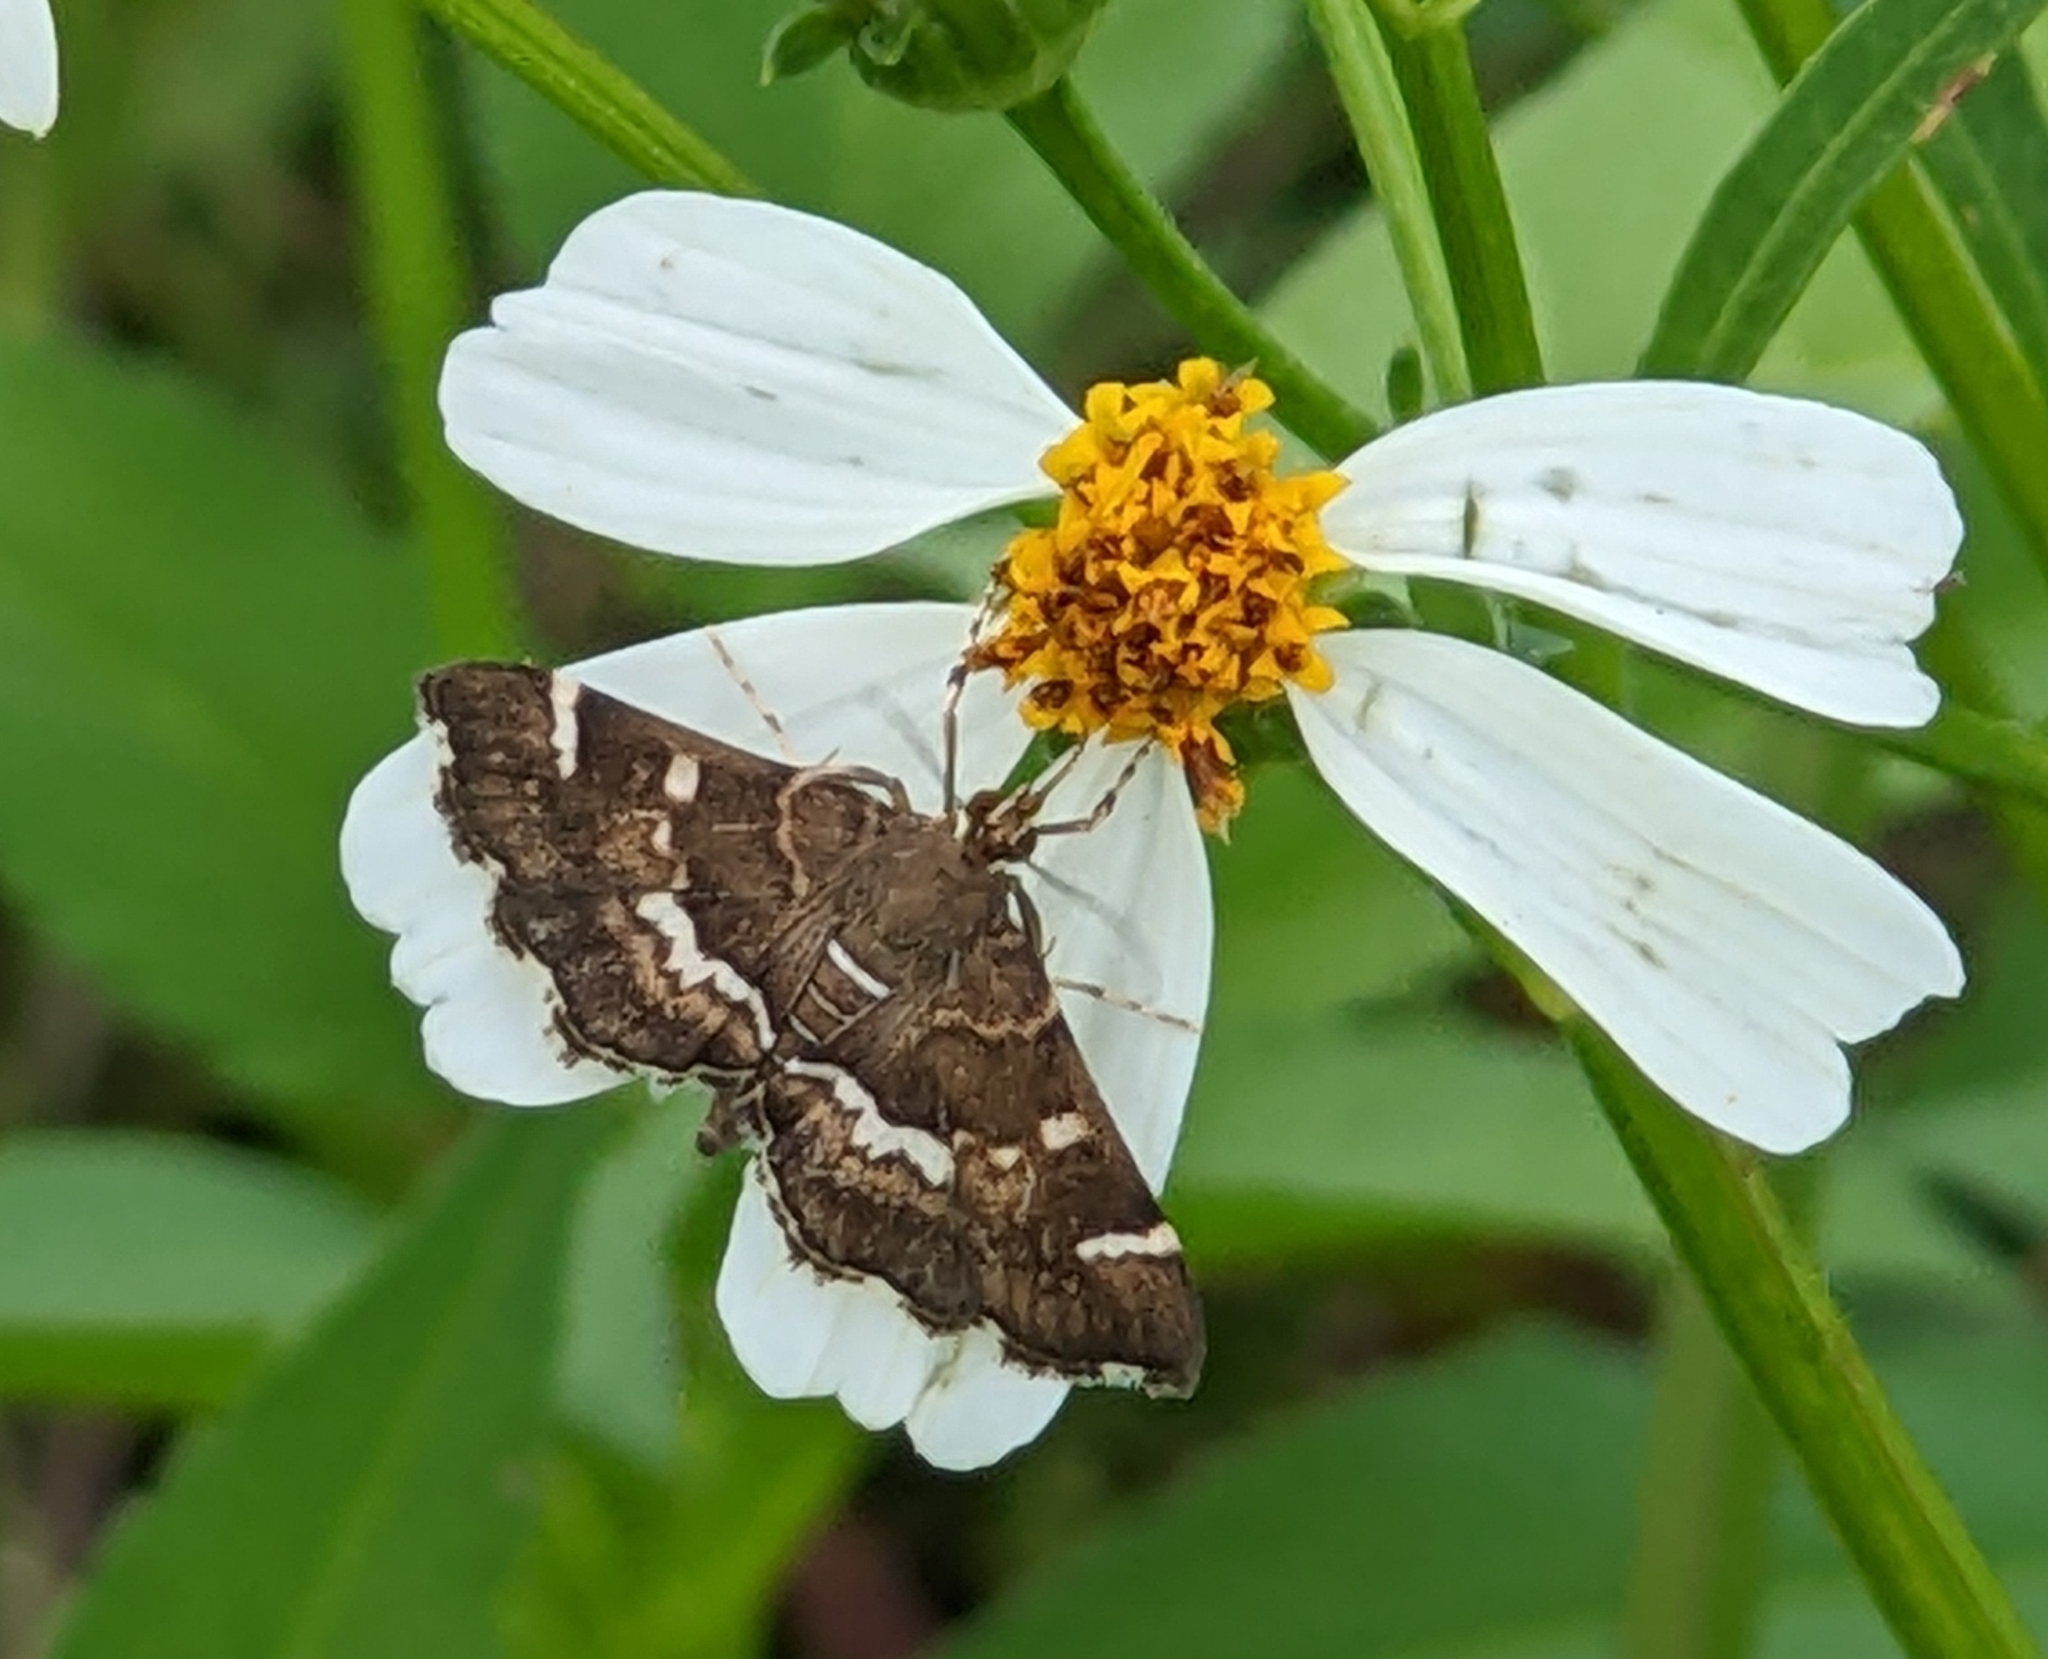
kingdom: Animalia
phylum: Arthropoda
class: Insecta
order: Lepidoptera
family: Crambidae
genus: Hymenia
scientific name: Hymenia perspectalis
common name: Spotted beet webworm
